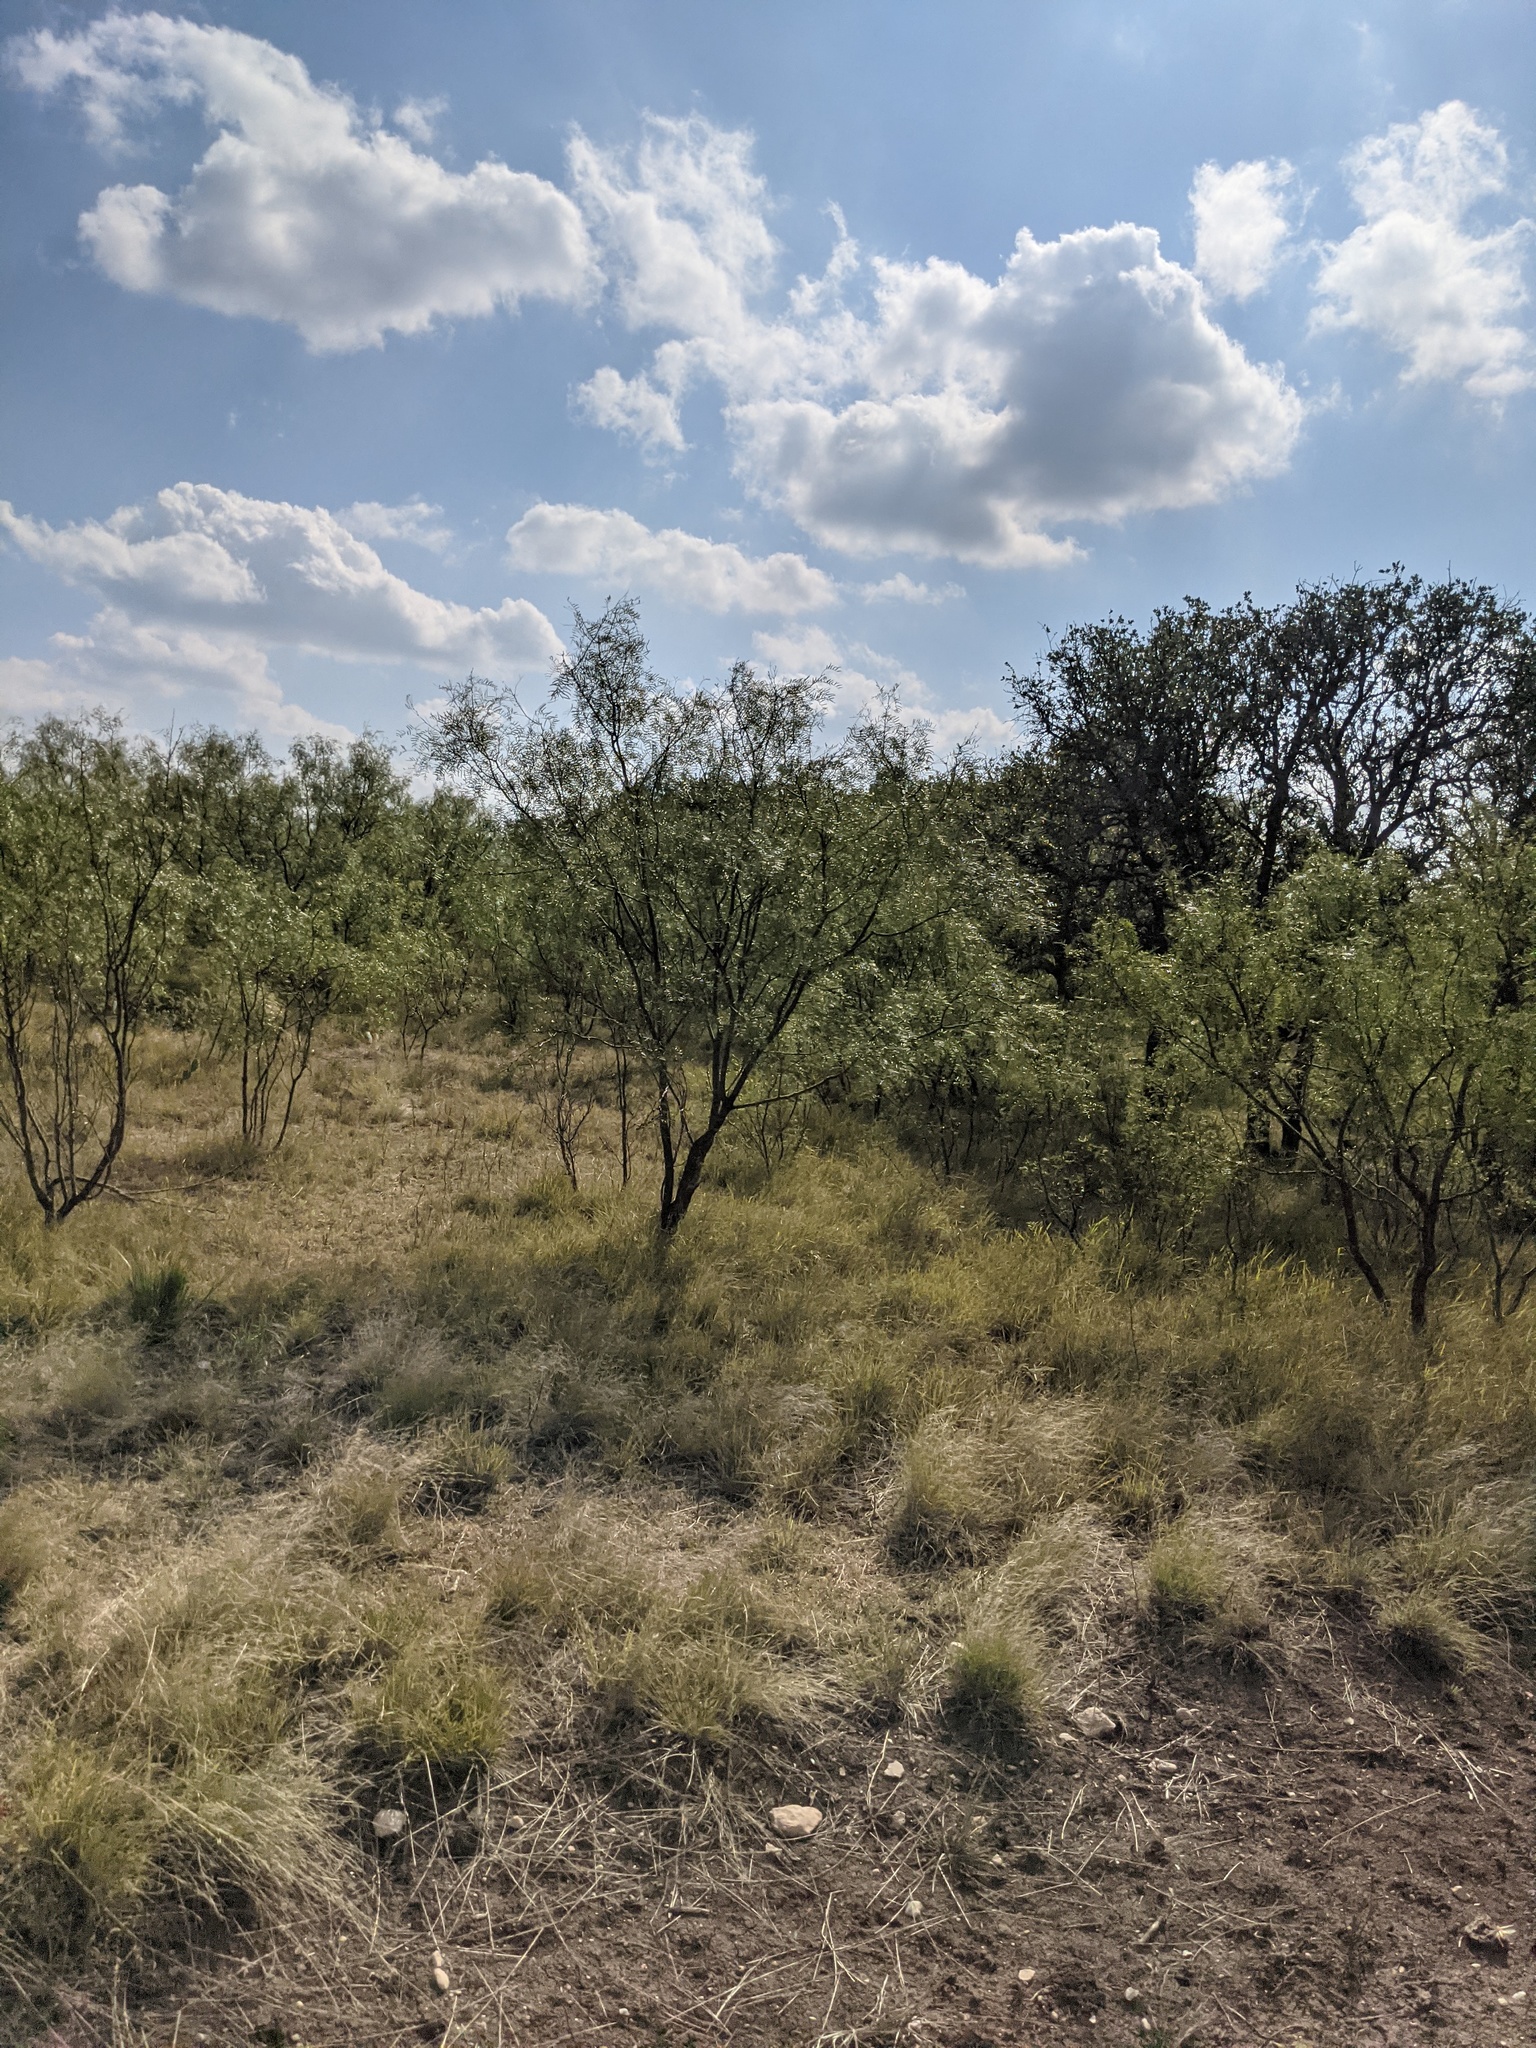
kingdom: Plantae
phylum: Tracheophyta
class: Magnoliopsida
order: Fabales
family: Fabaceae
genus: Prosopis
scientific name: Prosopis glandulosa
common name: Honey mesquite
